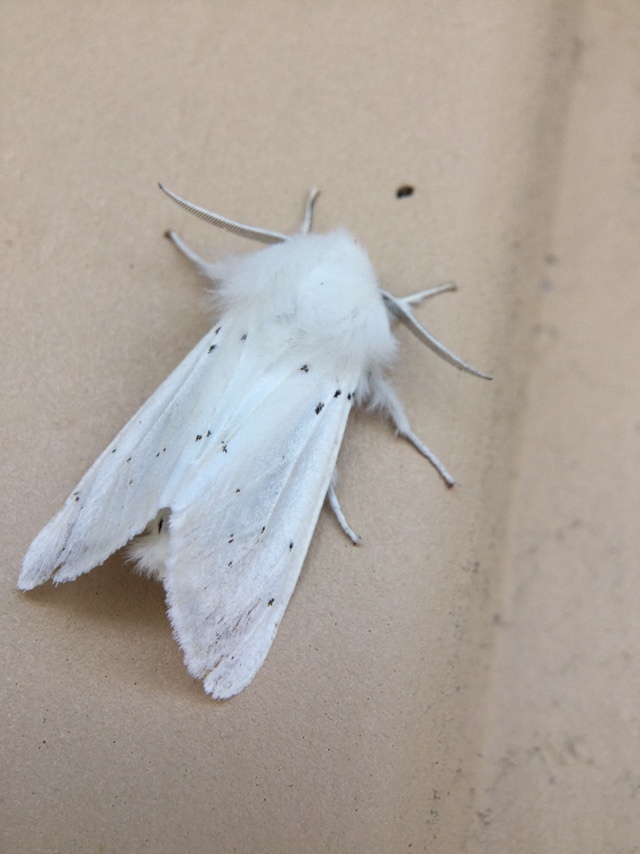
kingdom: Animalia
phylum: Arthropoda
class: Insecta
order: Lepidoptera
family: Erebidae
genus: Spilosoma
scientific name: Spilosoma vestalis
